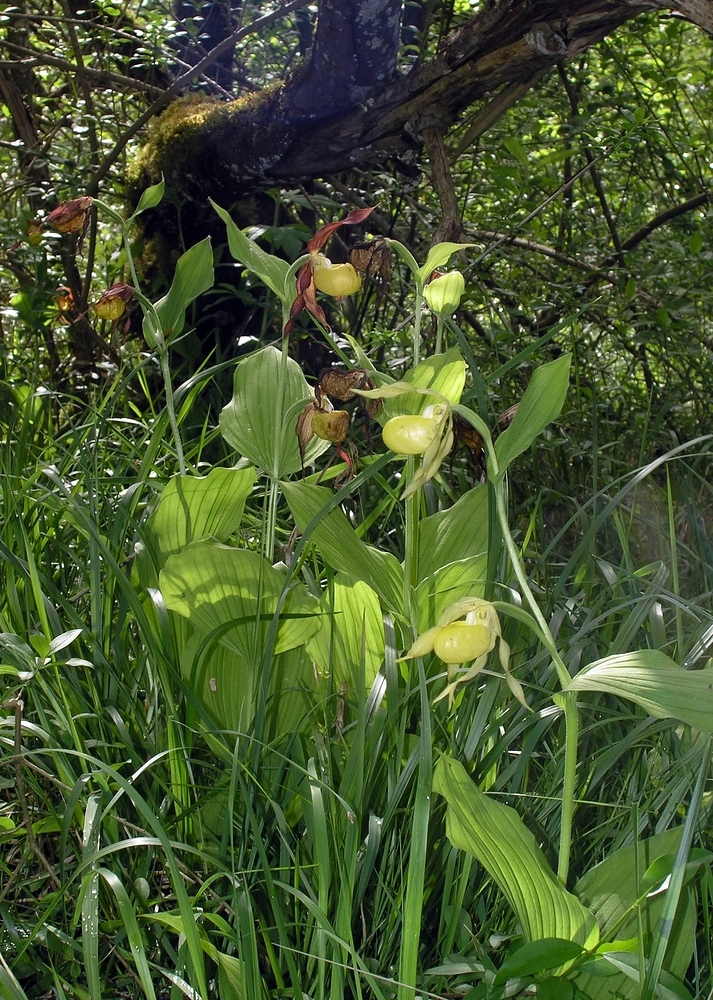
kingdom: Plantae
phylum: Tracheophyta
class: Liliopsida
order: Asparagales
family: Orchidaceae
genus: Cypripedium
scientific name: Cypripedium calceolus
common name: Lady's-slipper
